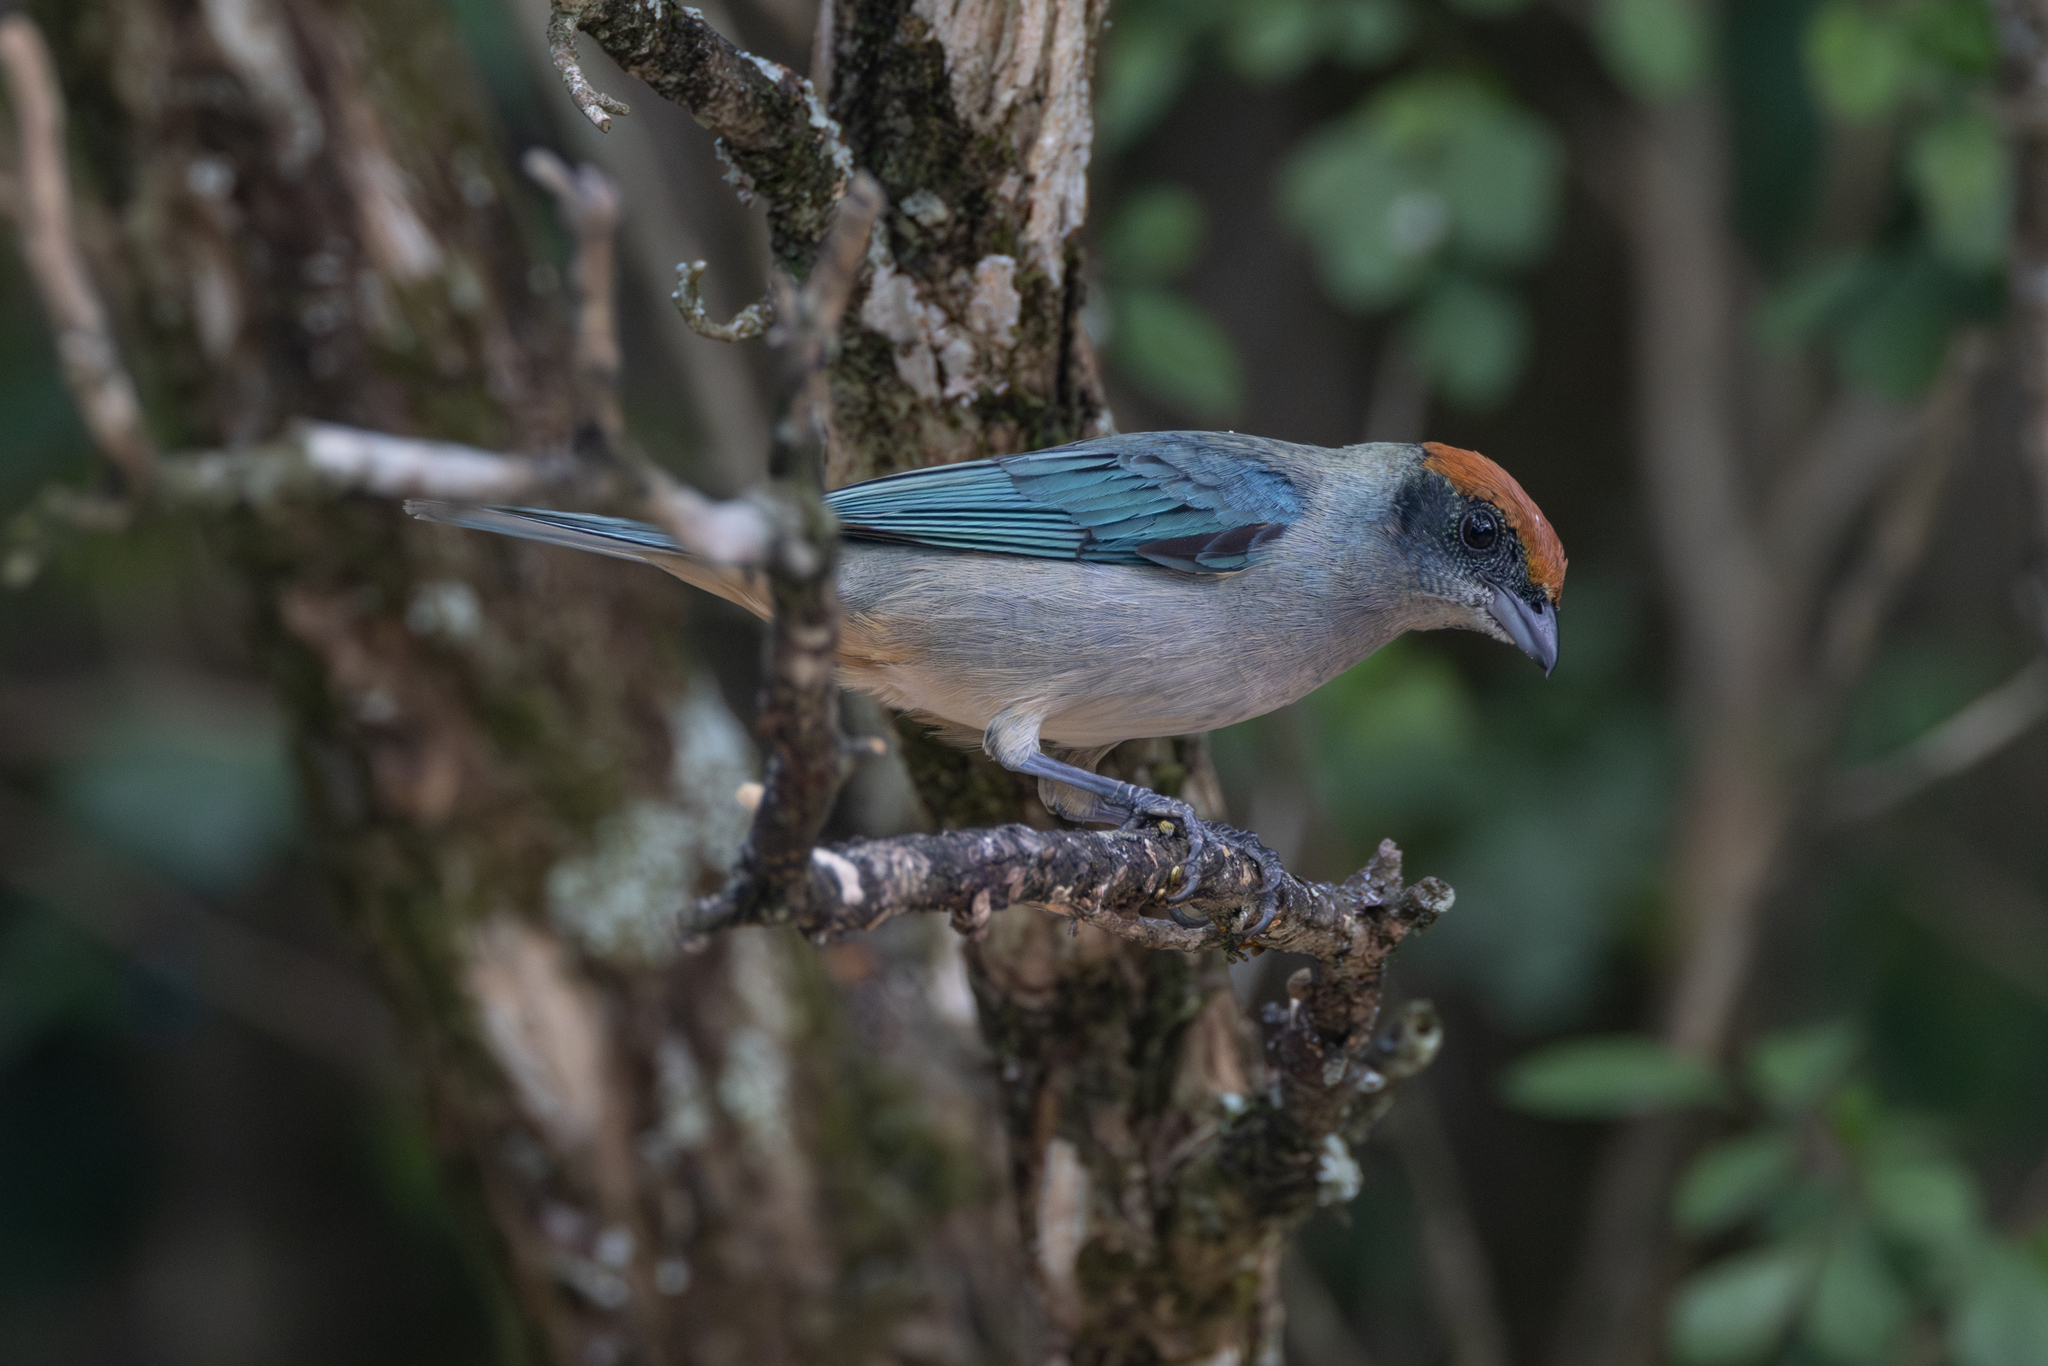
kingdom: Animalia
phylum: Chordata
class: Aves
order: Passeriformes
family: Thraupidae
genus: Stilpnia
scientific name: Stilpnia vitriolina
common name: Scrub tanager
